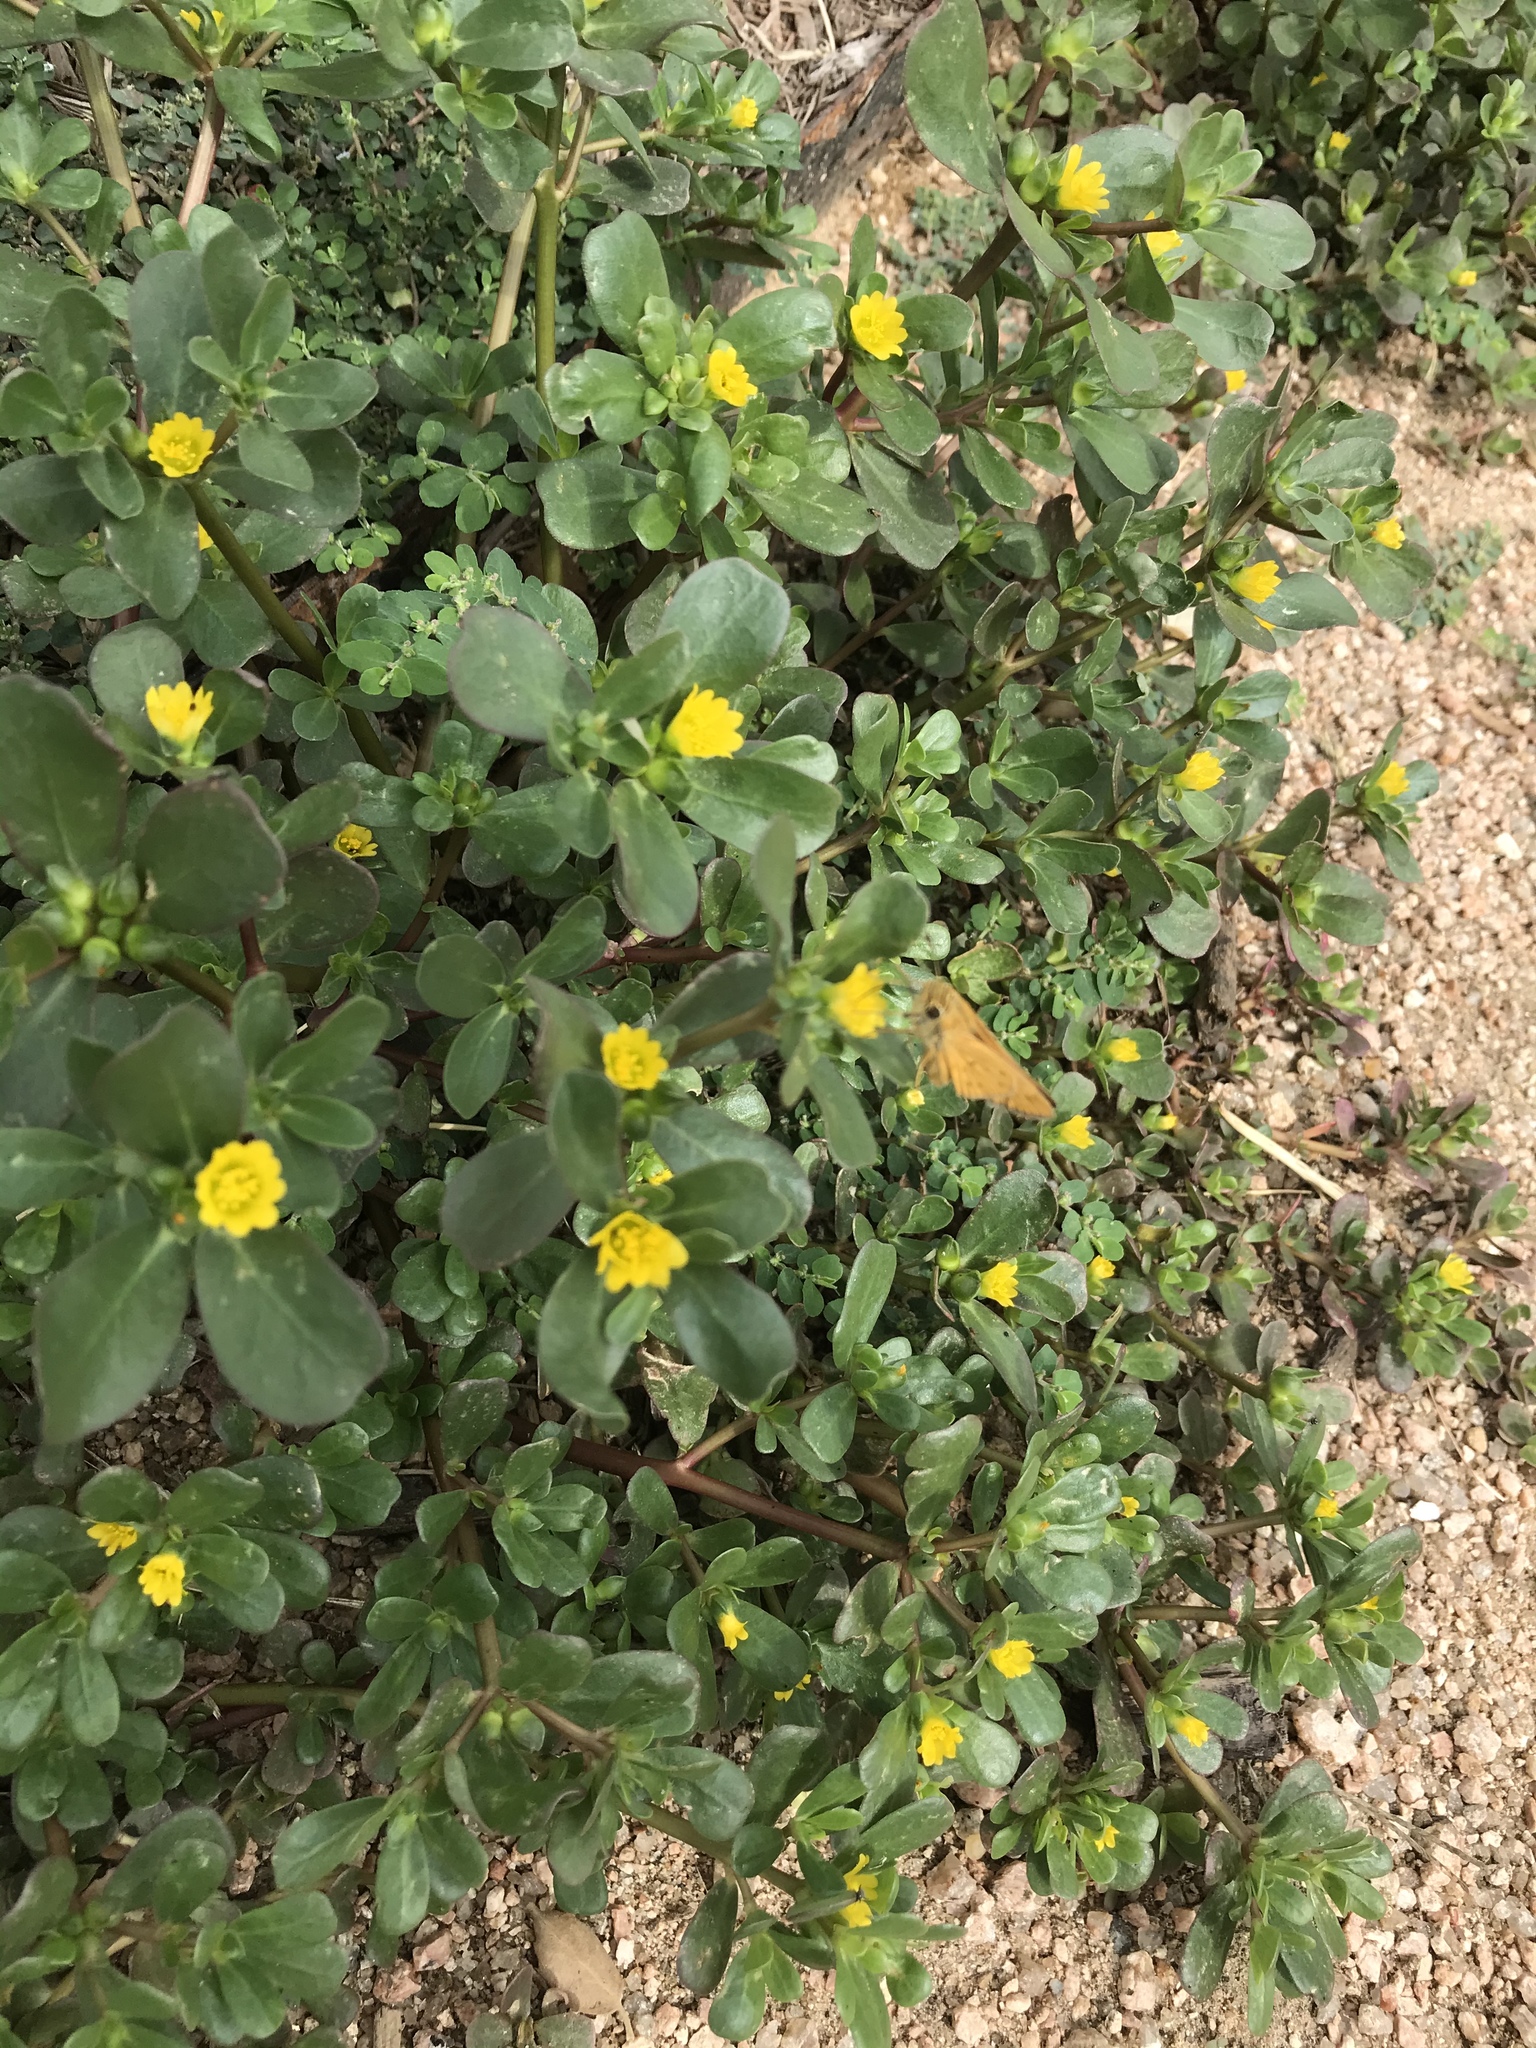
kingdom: Plantae
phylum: Tracheophyta
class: Magnoliopsida
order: Caryophyllales
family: Portulacaceae
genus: Portulaca
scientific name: Portulaca oleracea
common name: Common purslane
